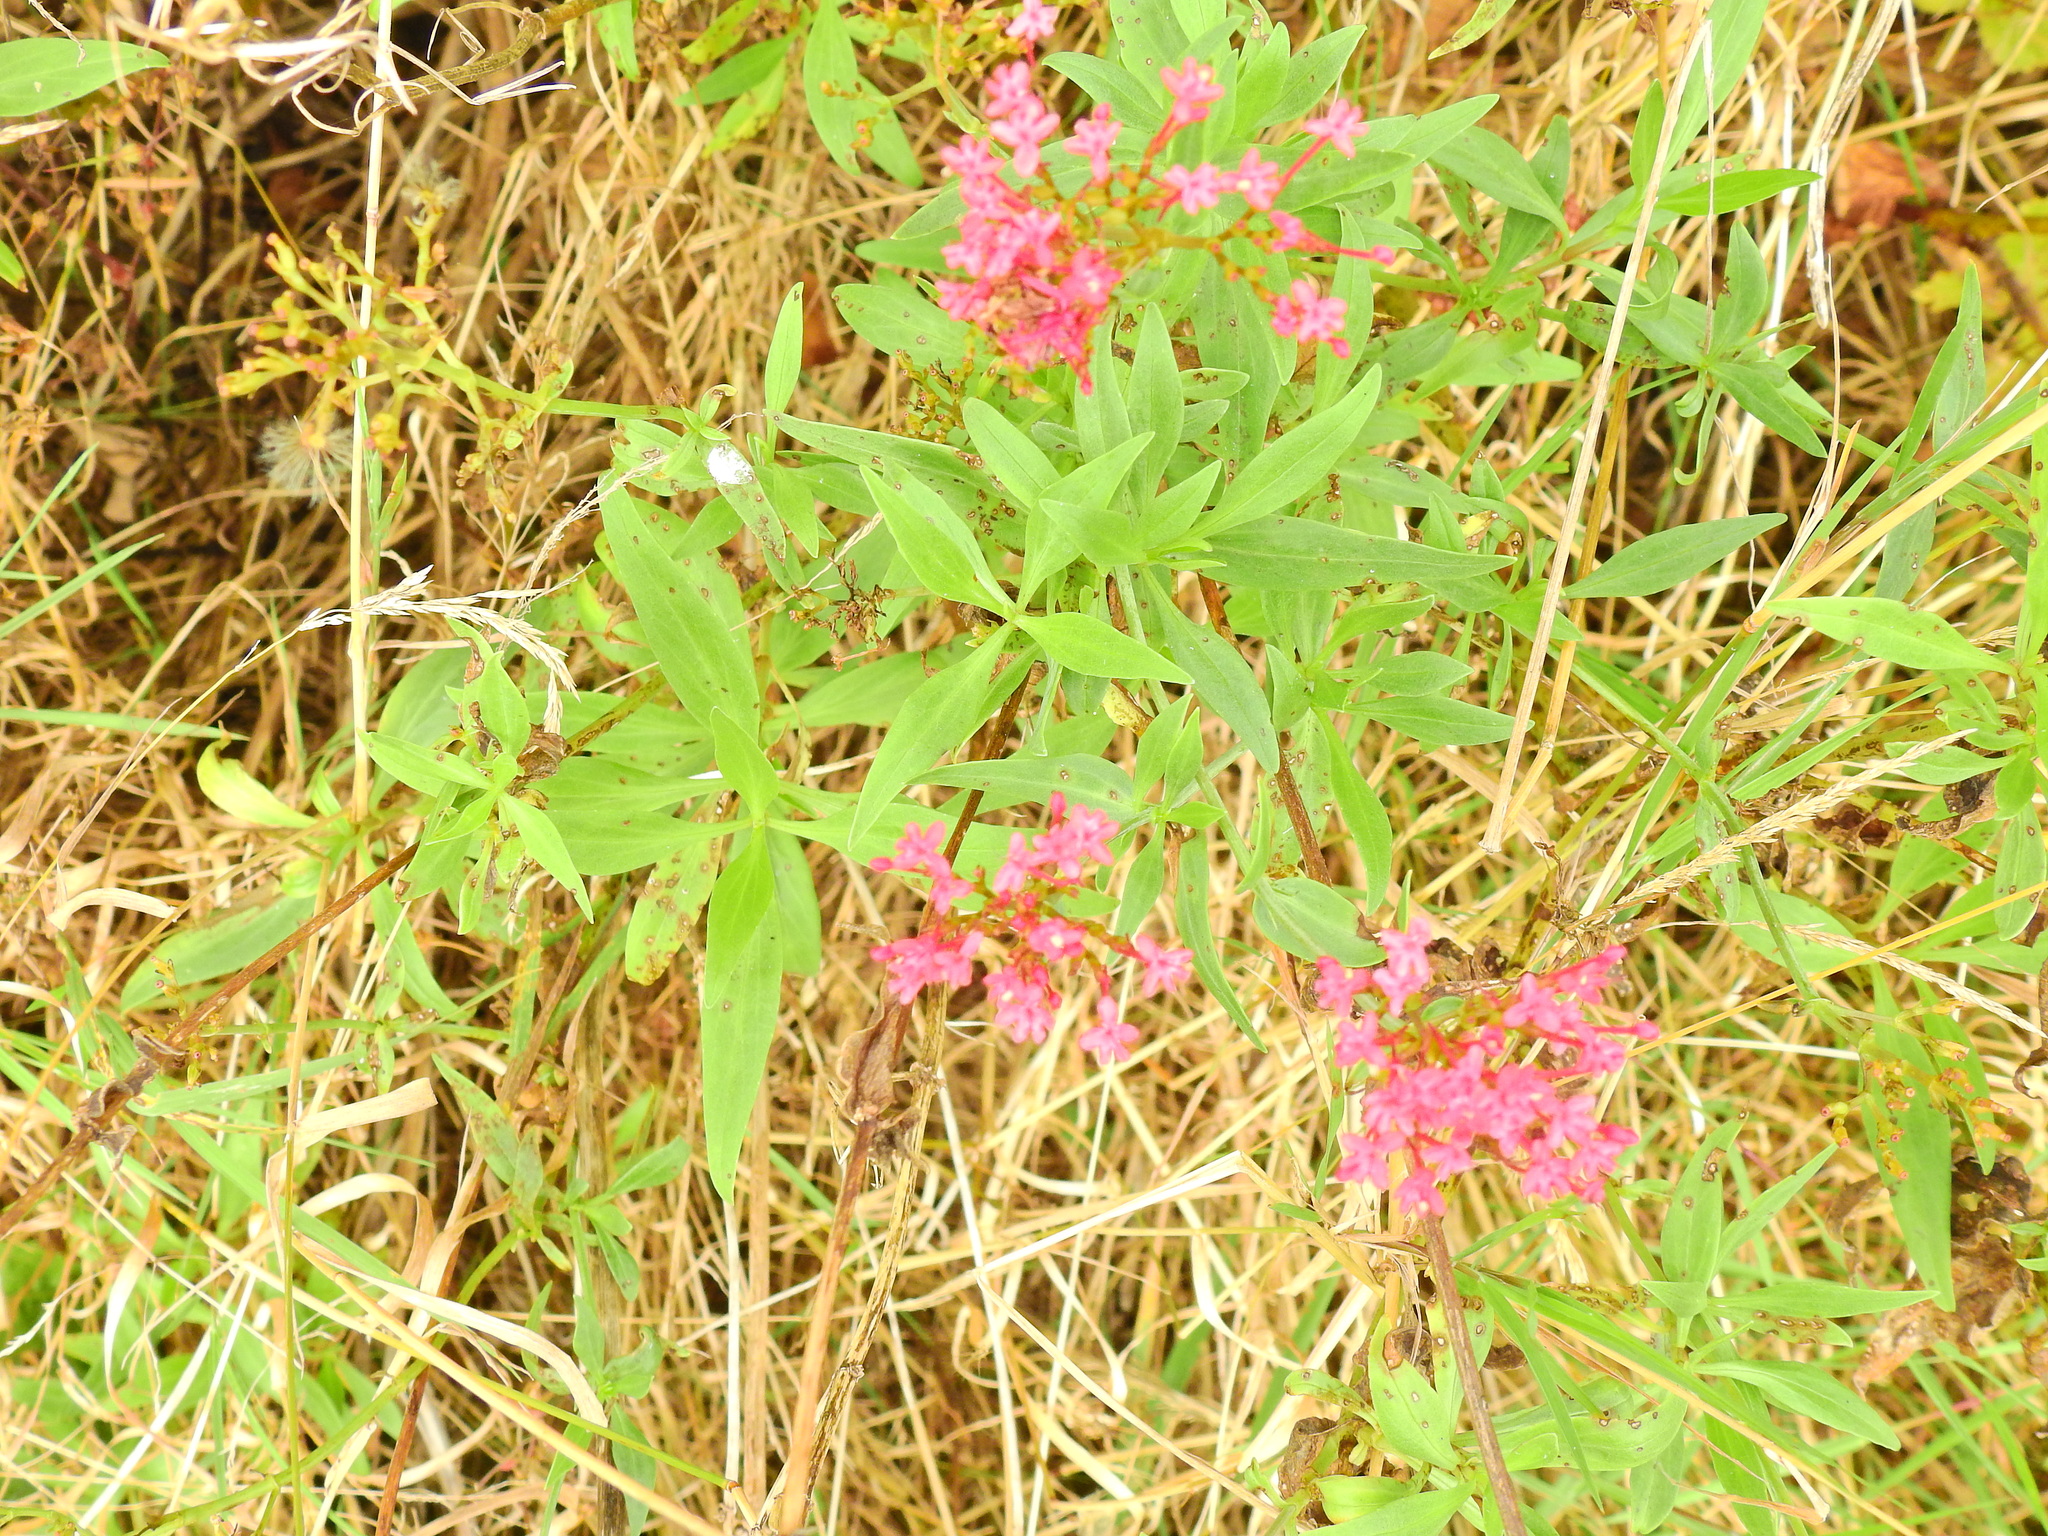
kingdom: Plantae
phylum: Tracheophyta
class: Magnoliopsida
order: Dipsacales
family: Caprifoliaceae
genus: Centranthus
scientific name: Centranthus ruber
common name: Red valerian
